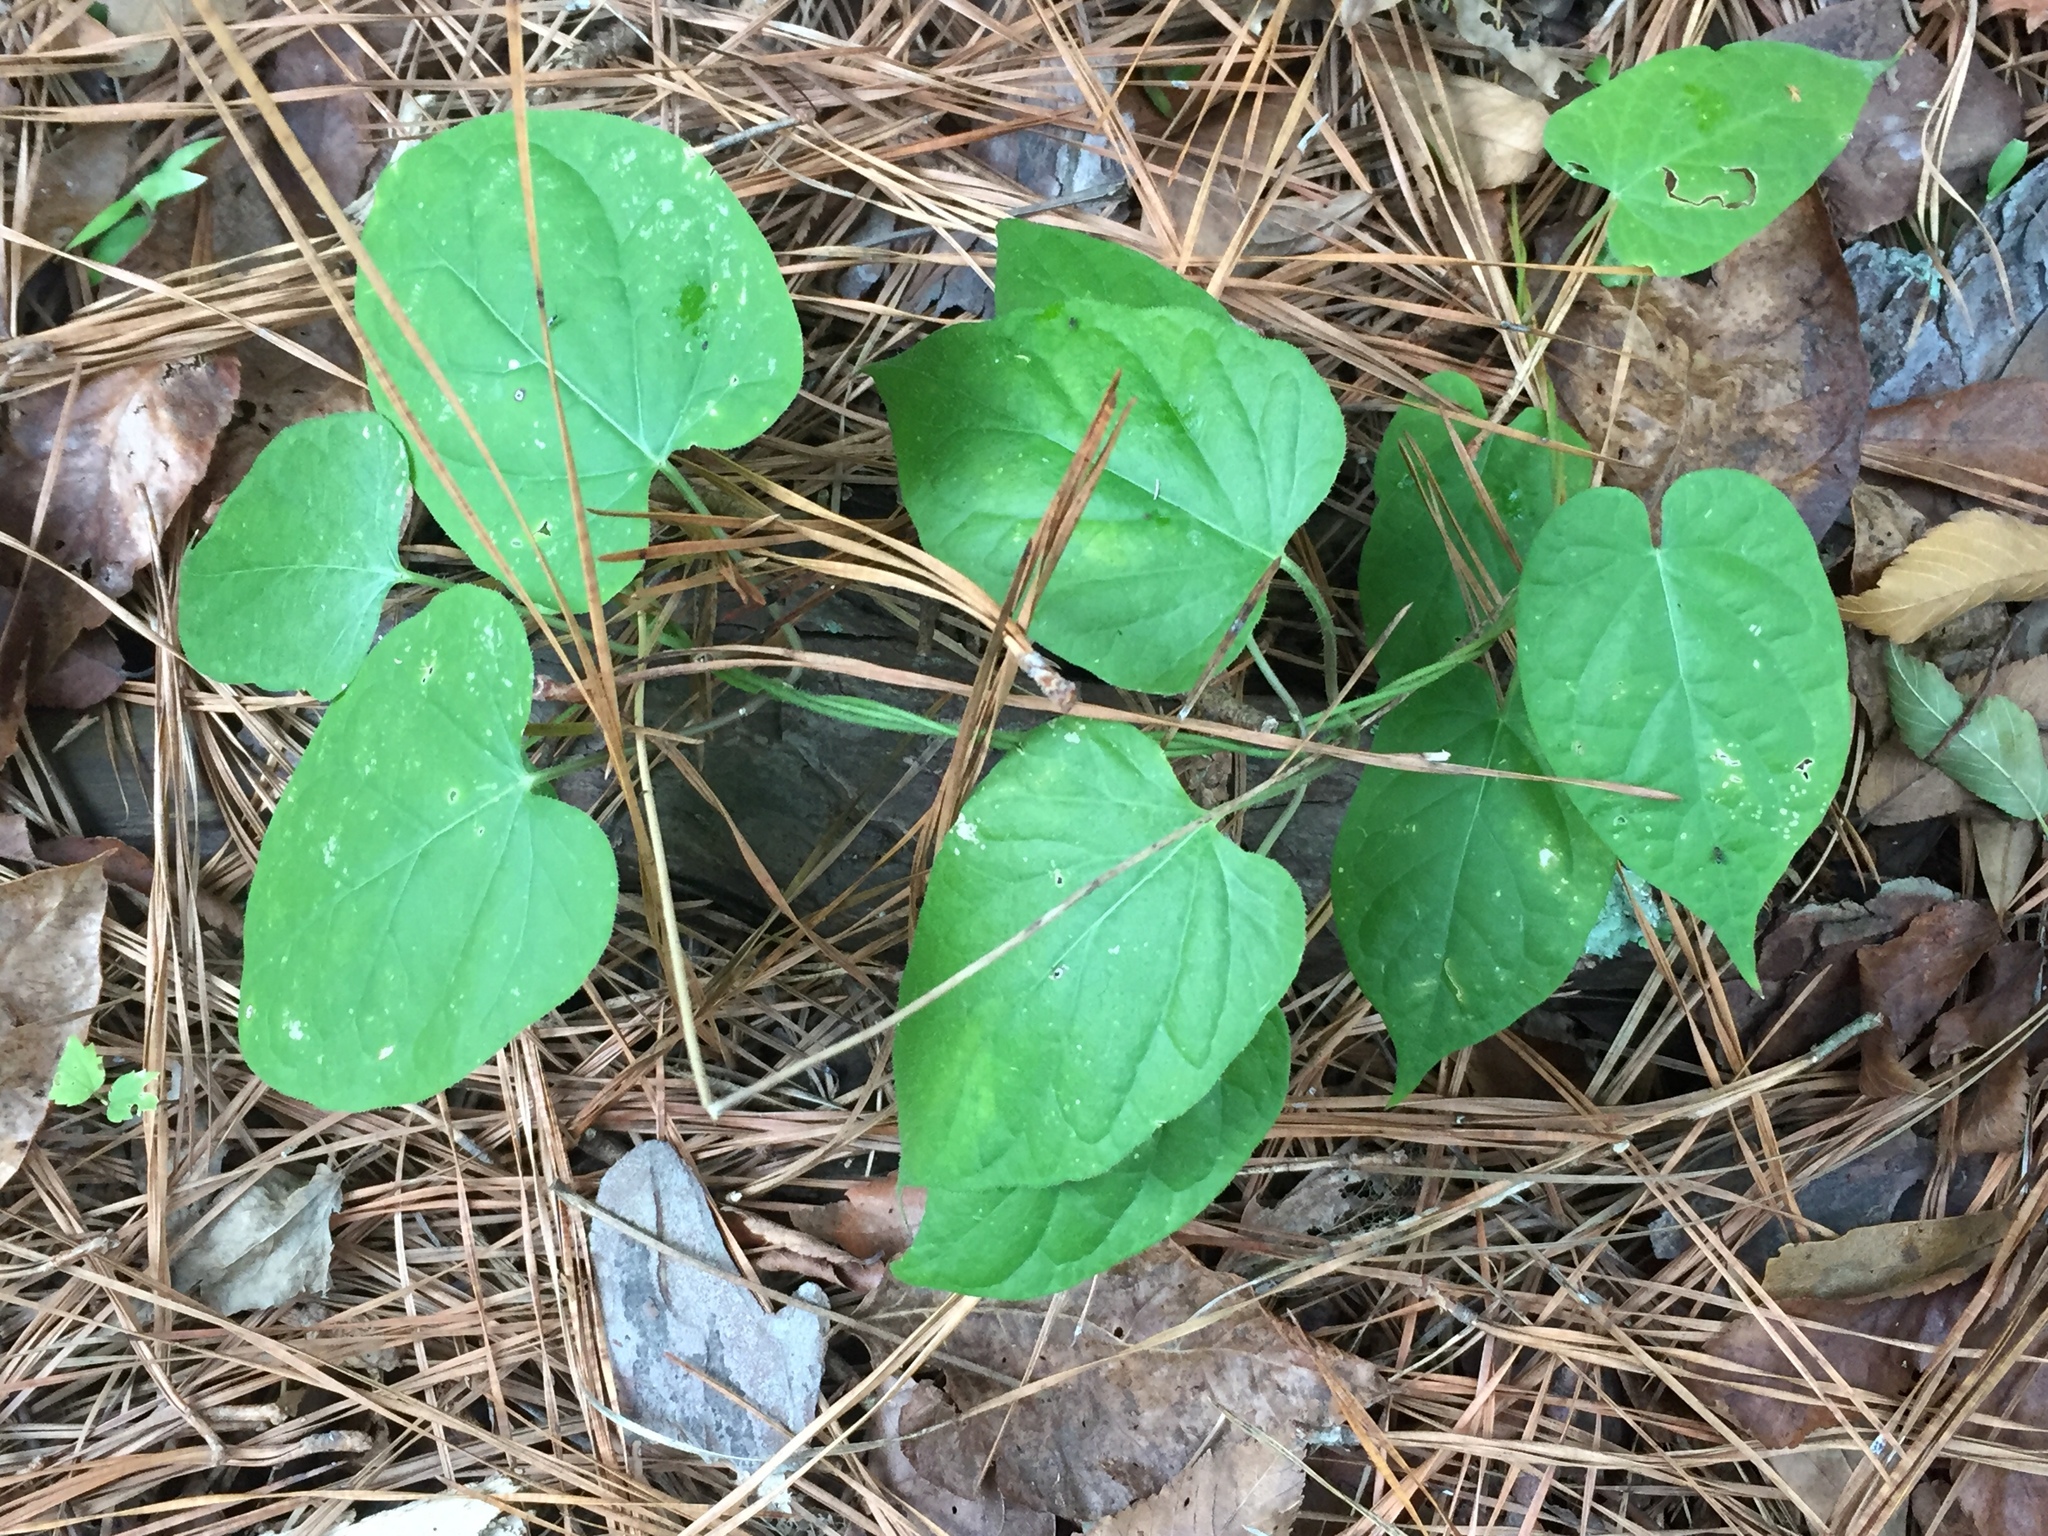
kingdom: Plantae
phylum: Tracheophyta
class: Magnoliopsida
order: Gentianales
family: Apocynaceae
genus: Gonolobus
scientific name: Gonolobus suberosus
